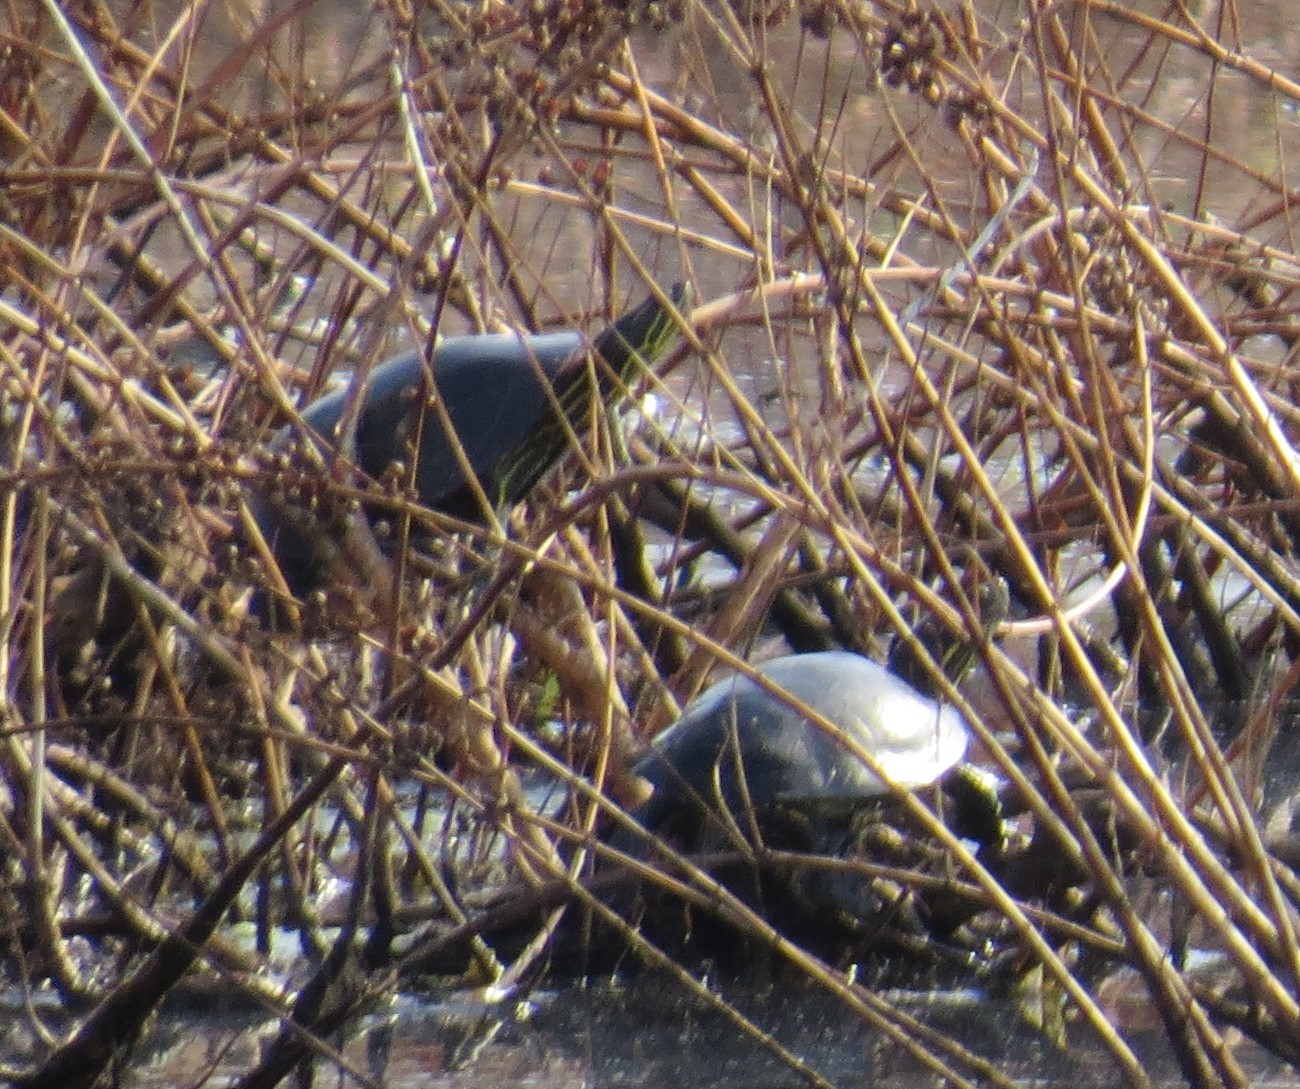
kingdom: Animalia
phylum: Chordata
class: Testudines
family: Emydidae
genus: Chrysemys
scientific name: Chrysemys picta
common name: Painted turtle
